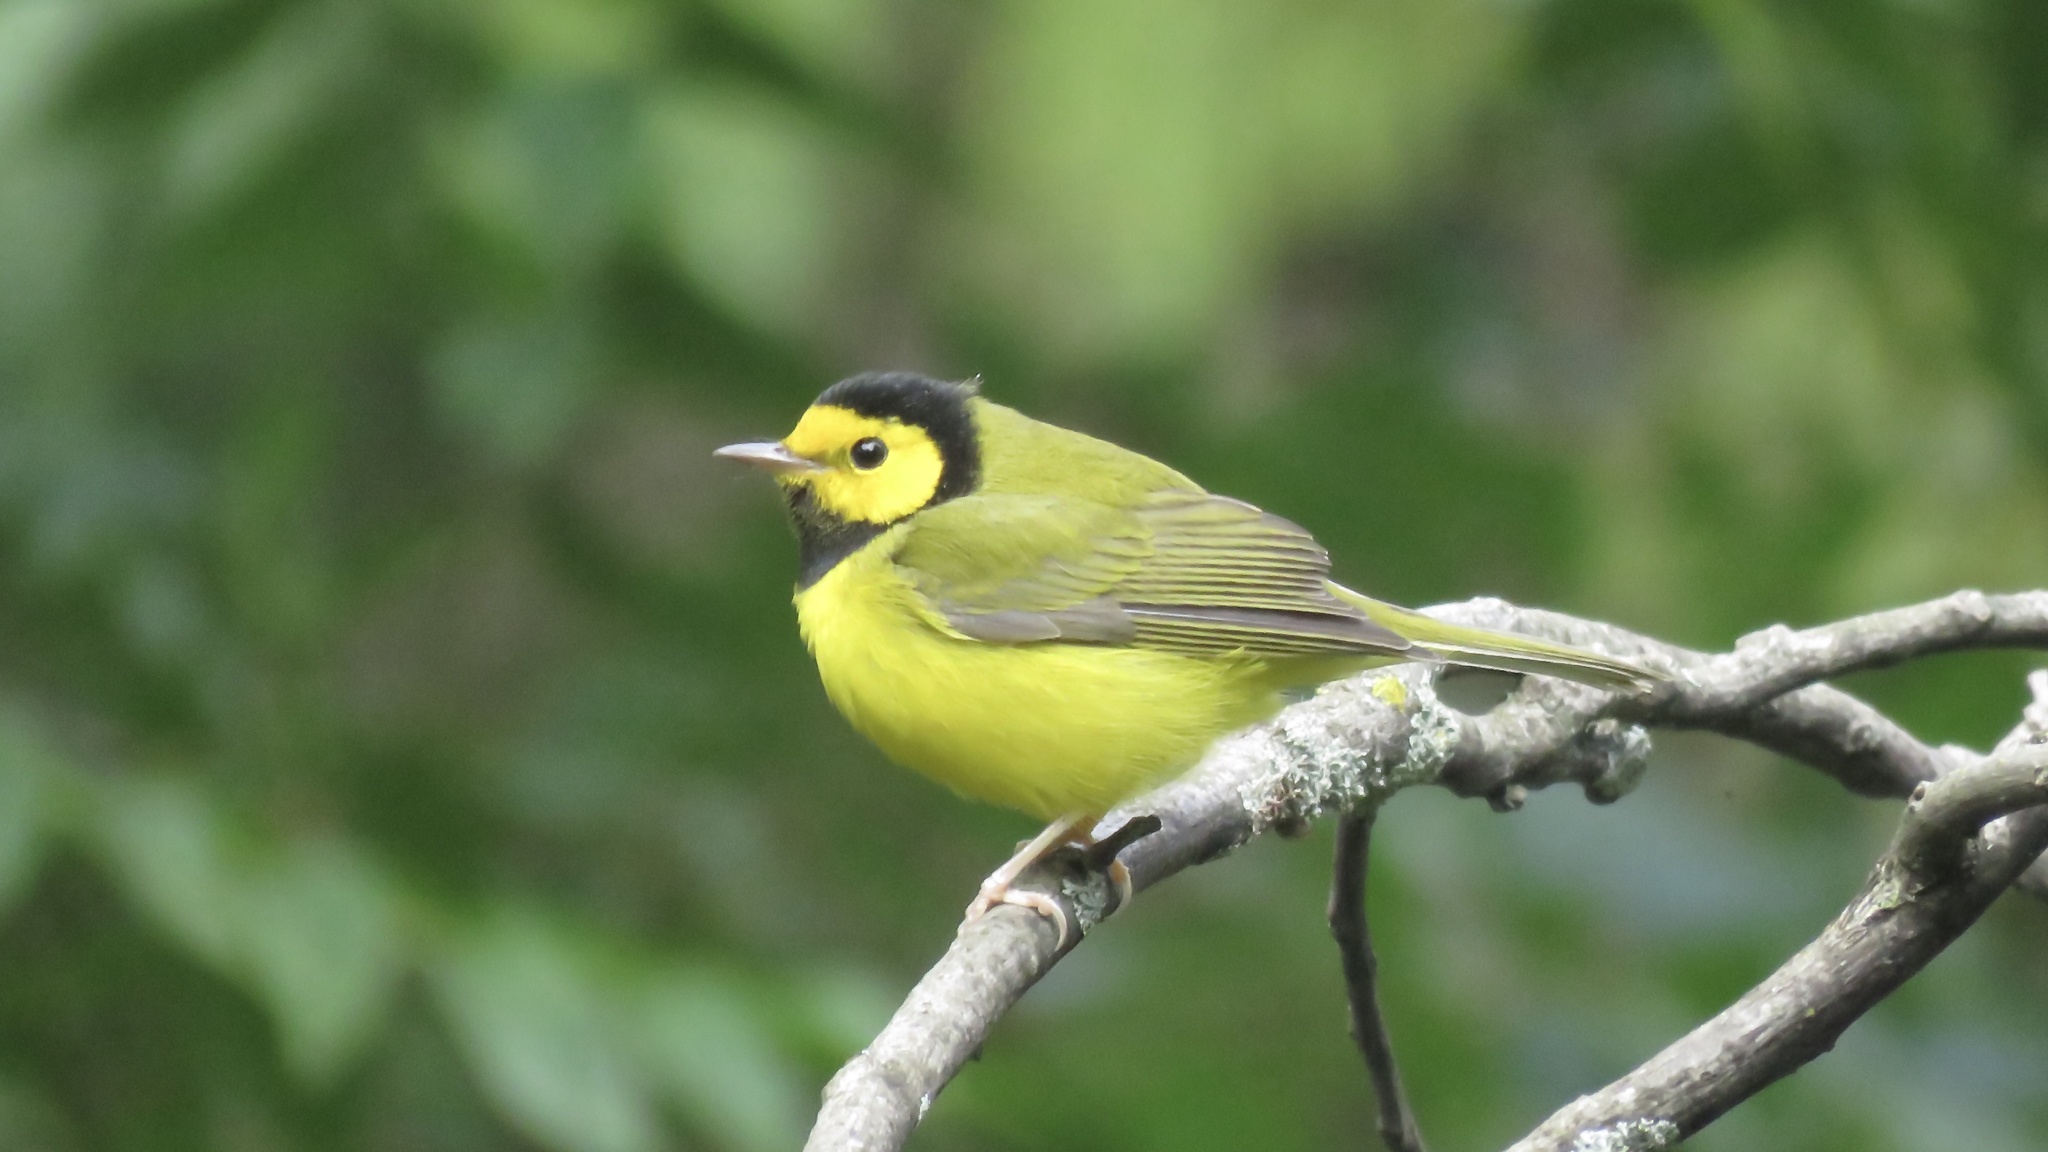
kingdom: Animalia
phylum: Chordata
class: Aves
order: Passeriformes
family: Parulidae
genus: Setophaga
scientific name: Setophaga citrina
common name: Hooded warbler
